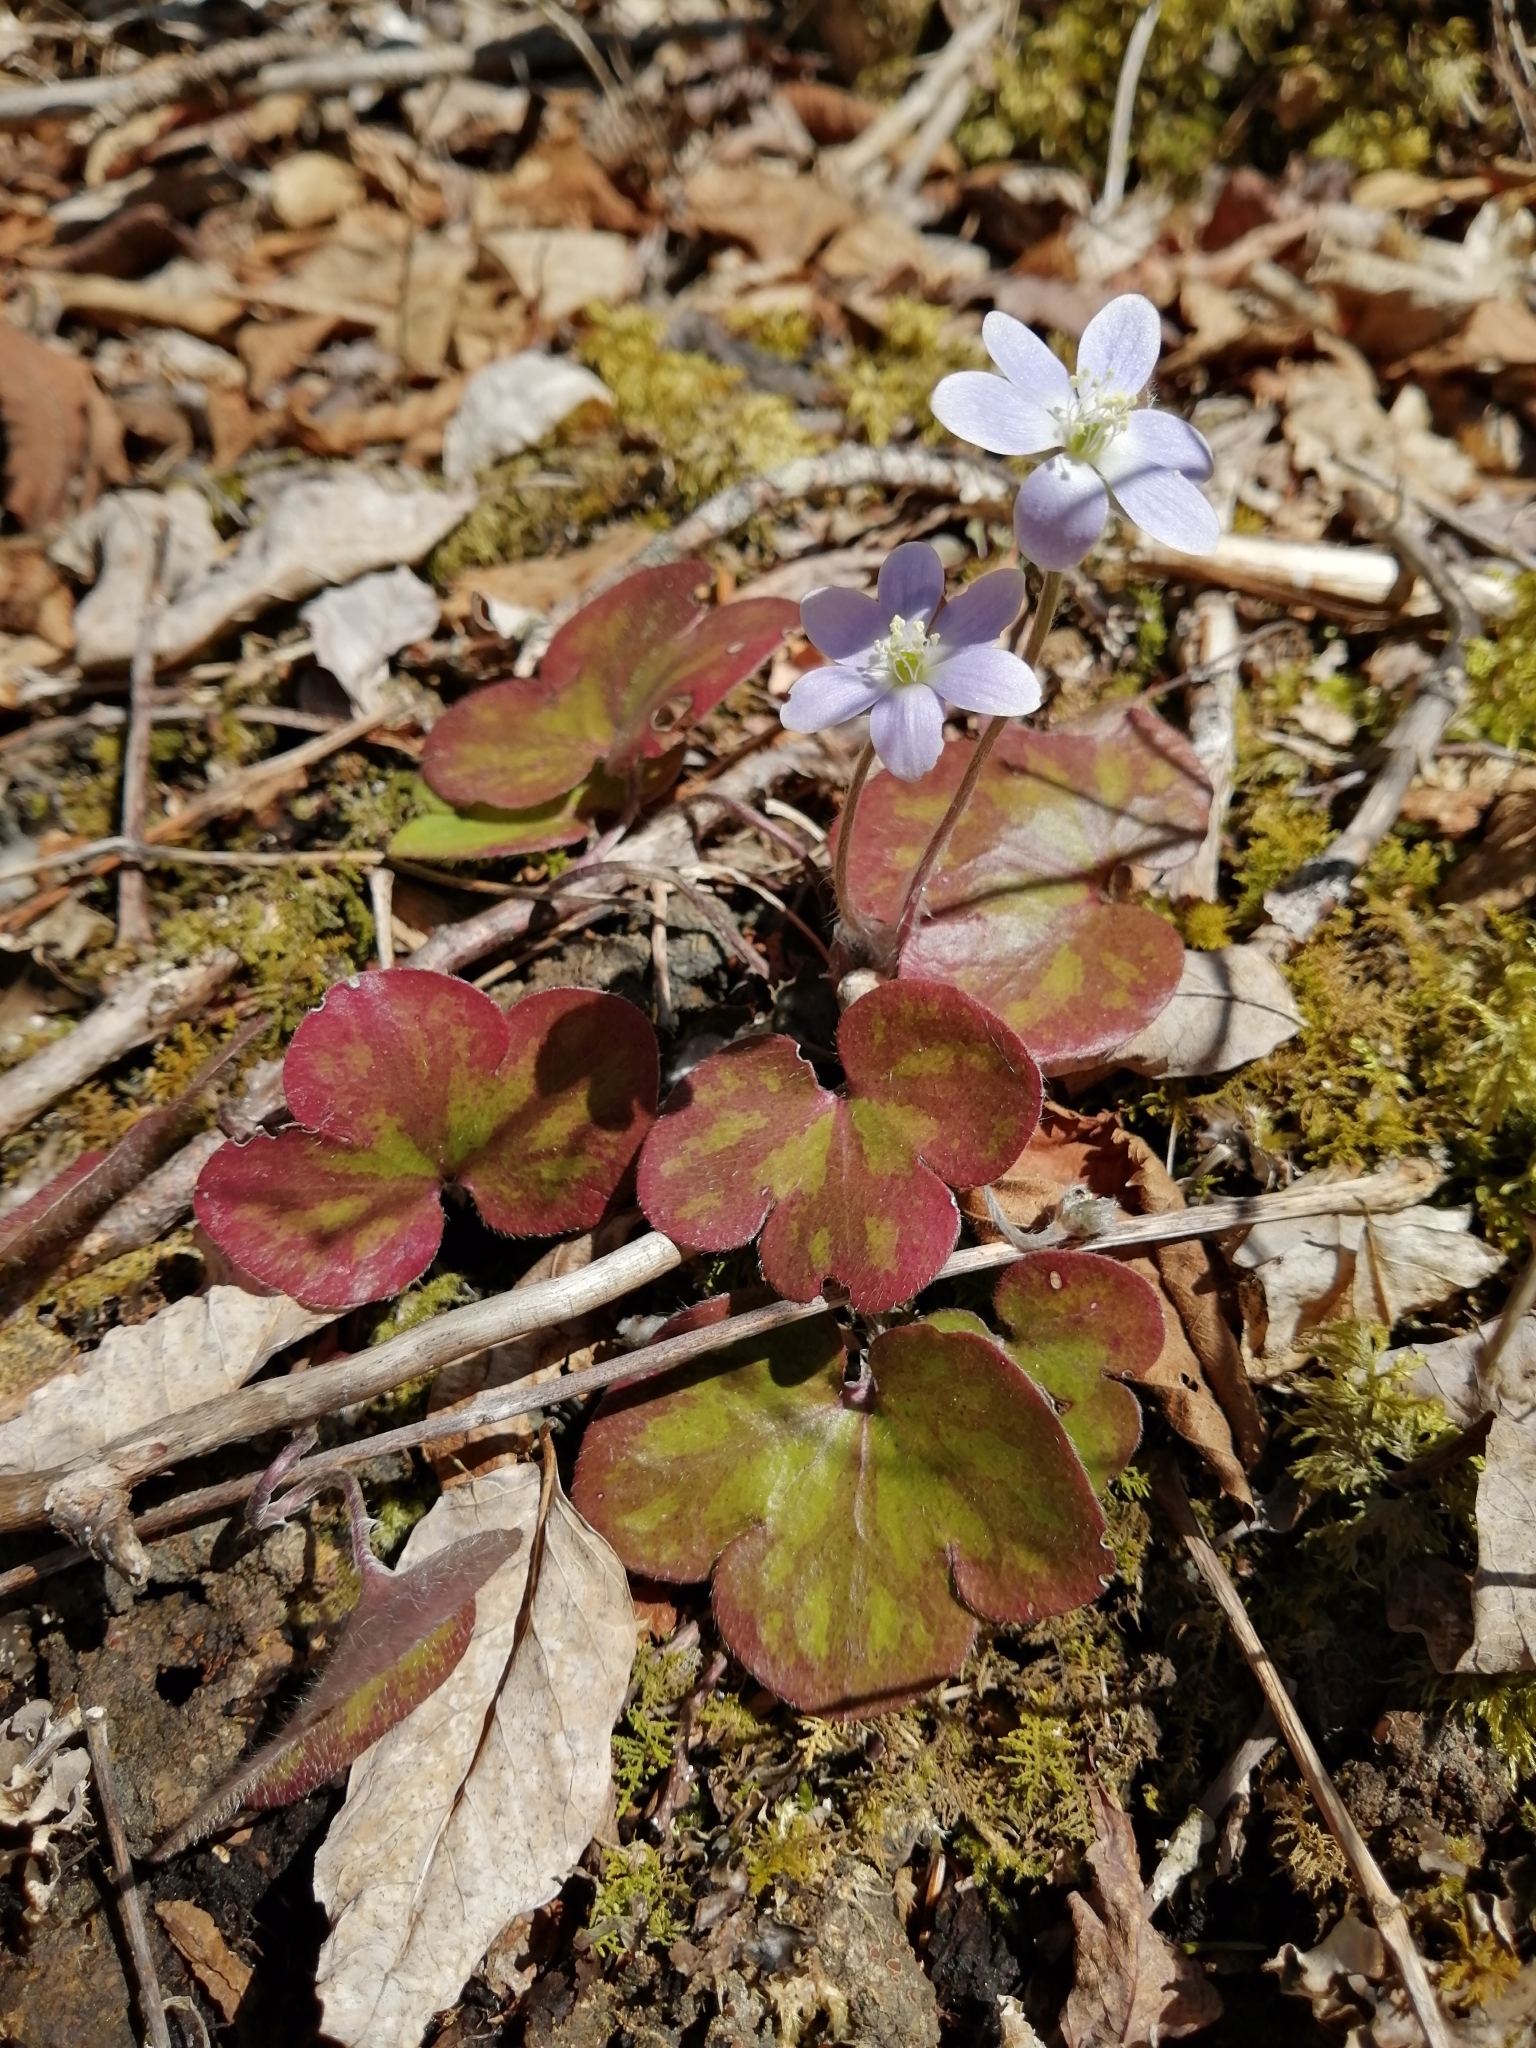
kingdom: Plantae
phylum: Tracheophyta
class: Magnoliopsida
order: Ranunculales
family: Ranunculaceae
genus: Hepatica
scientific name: Hepatica americana
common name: American hepatica
